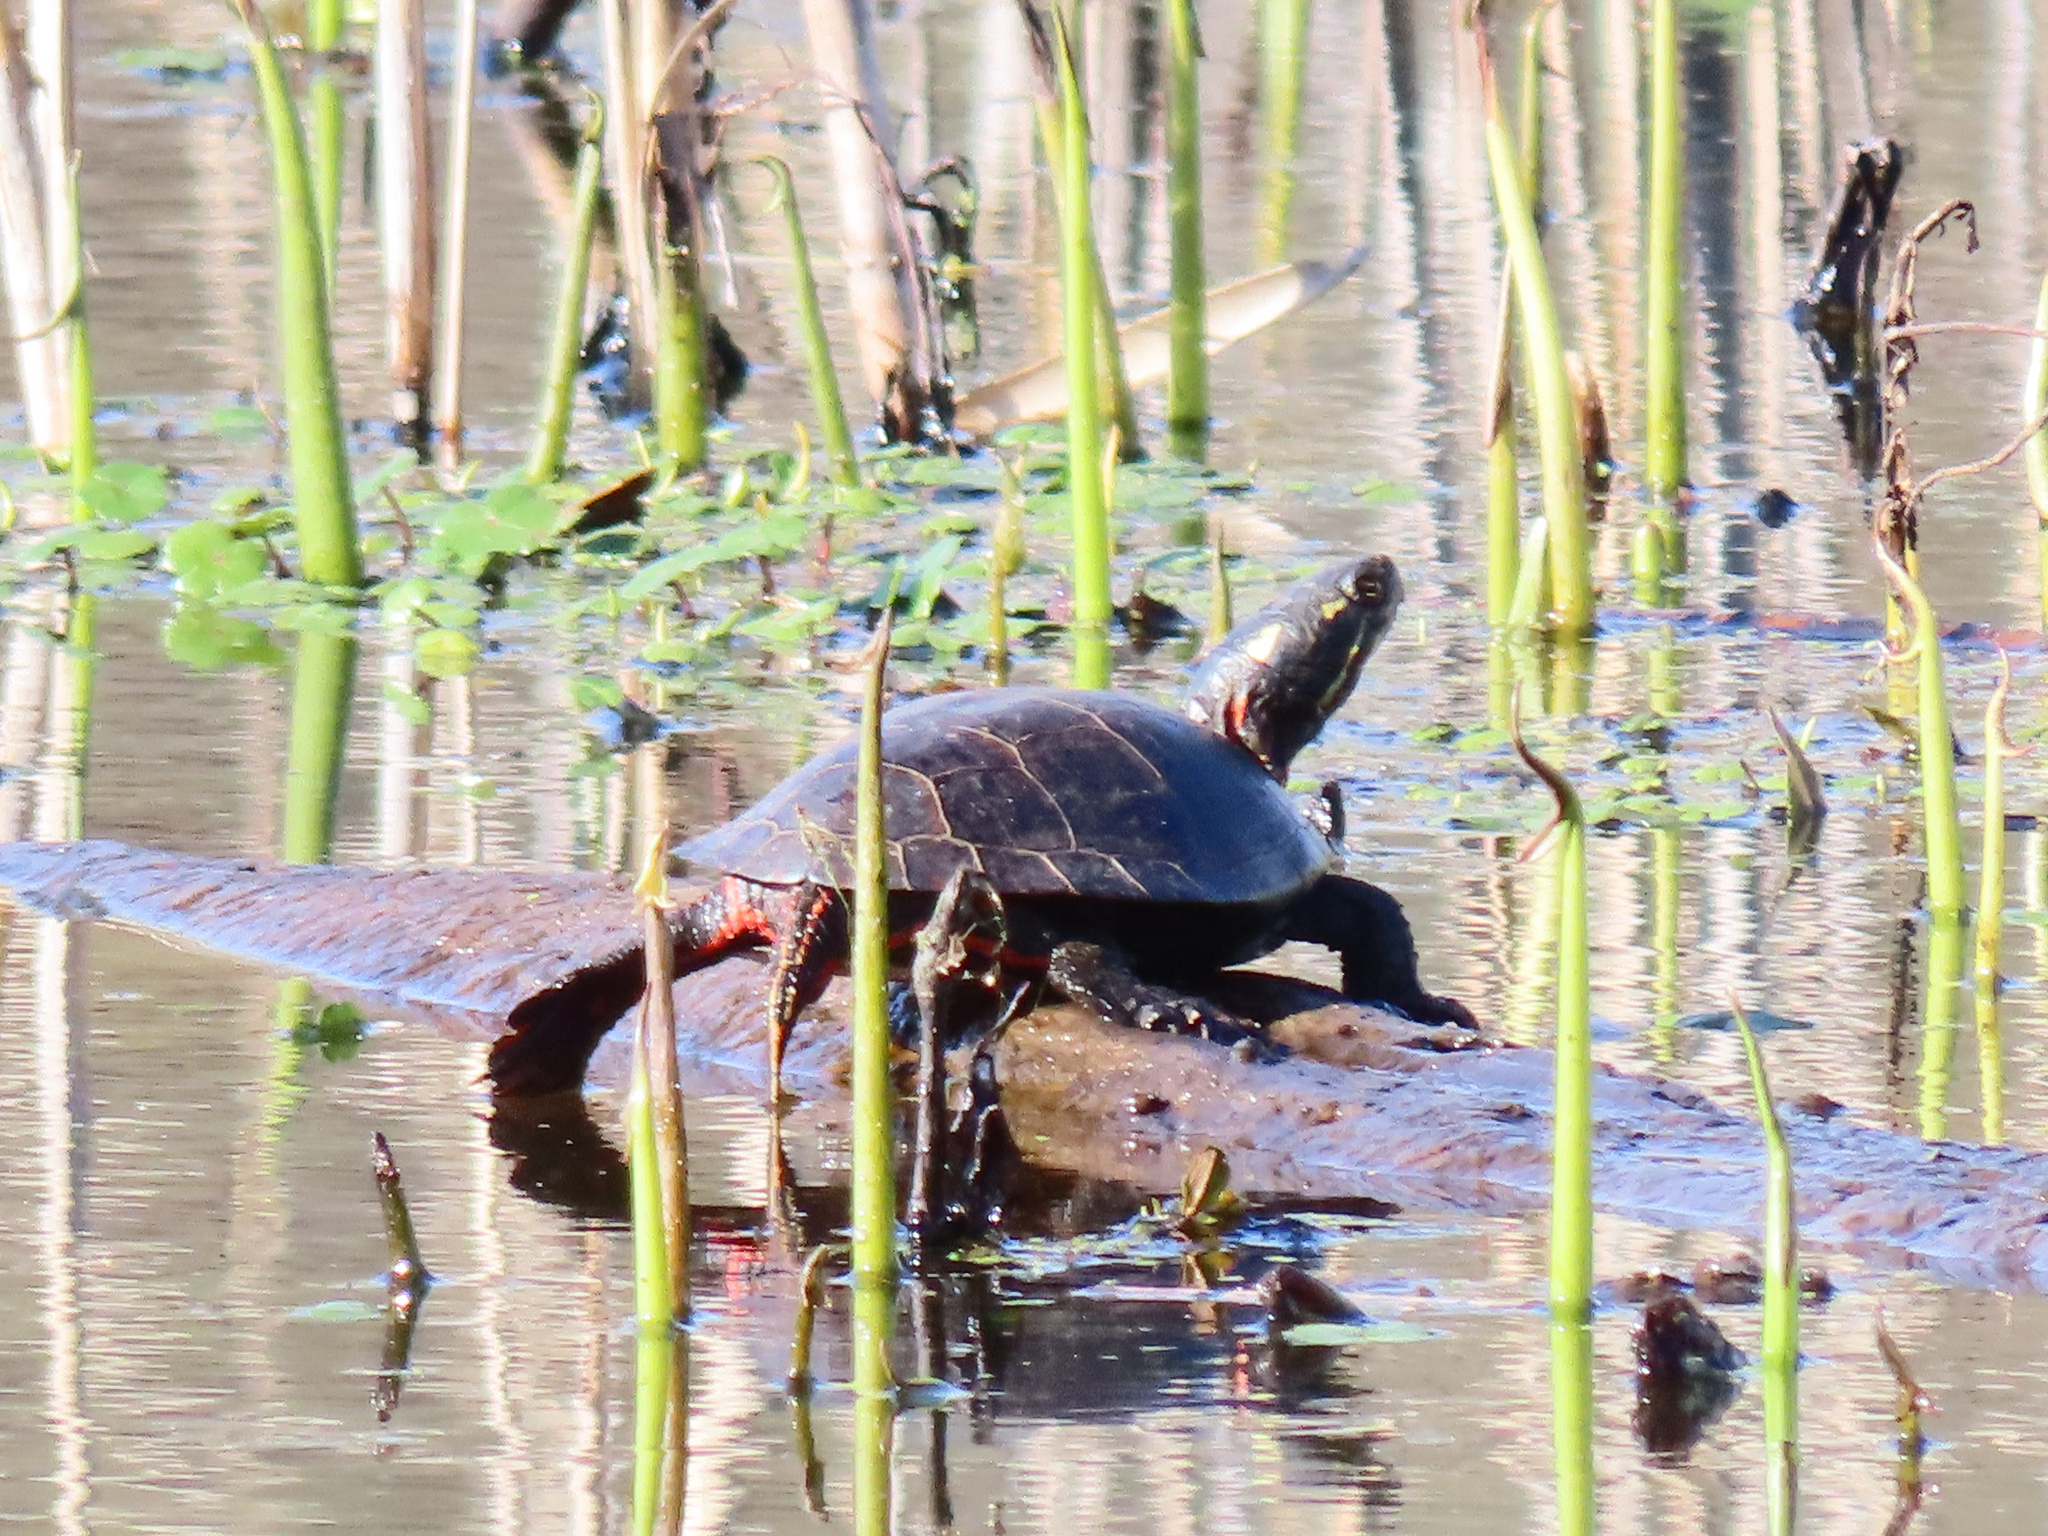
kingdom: Animalia
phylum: Chordata
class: Testudines
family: Emydidae
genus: Chrysemys
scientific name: Chrysemys picta
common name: Painted turtle
